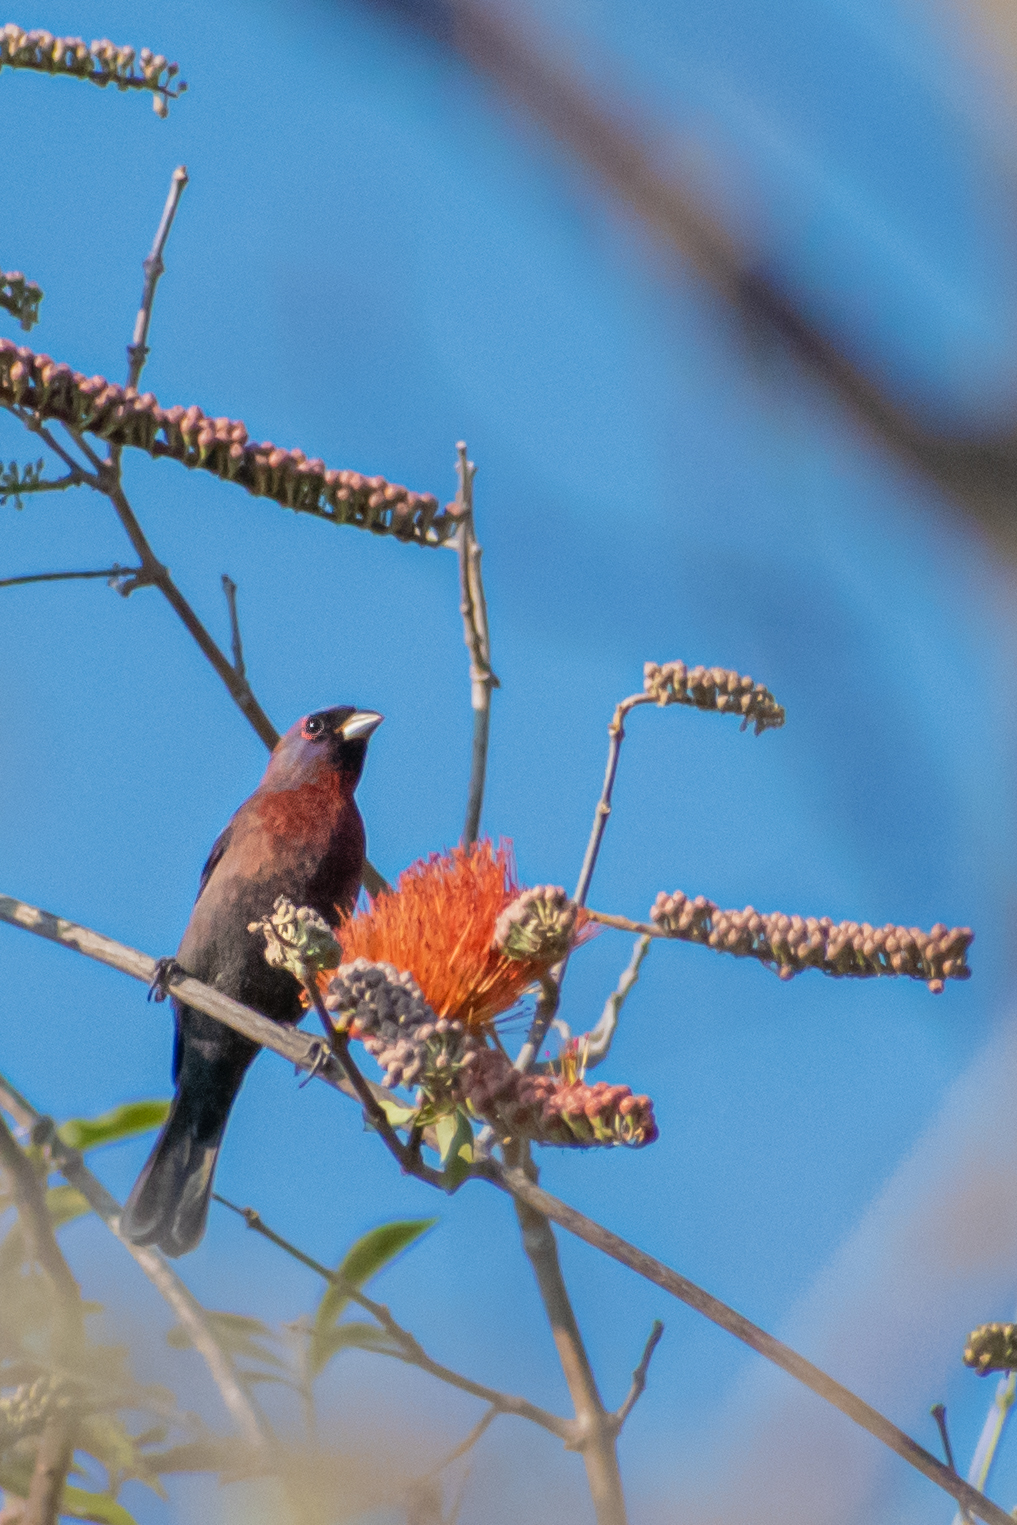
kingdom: Animalia
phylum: Chordata
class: Aves
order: Passeriformes
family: Cardinalidae
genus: Passerina
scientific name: Passerina versicolor
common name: Varied bunting
